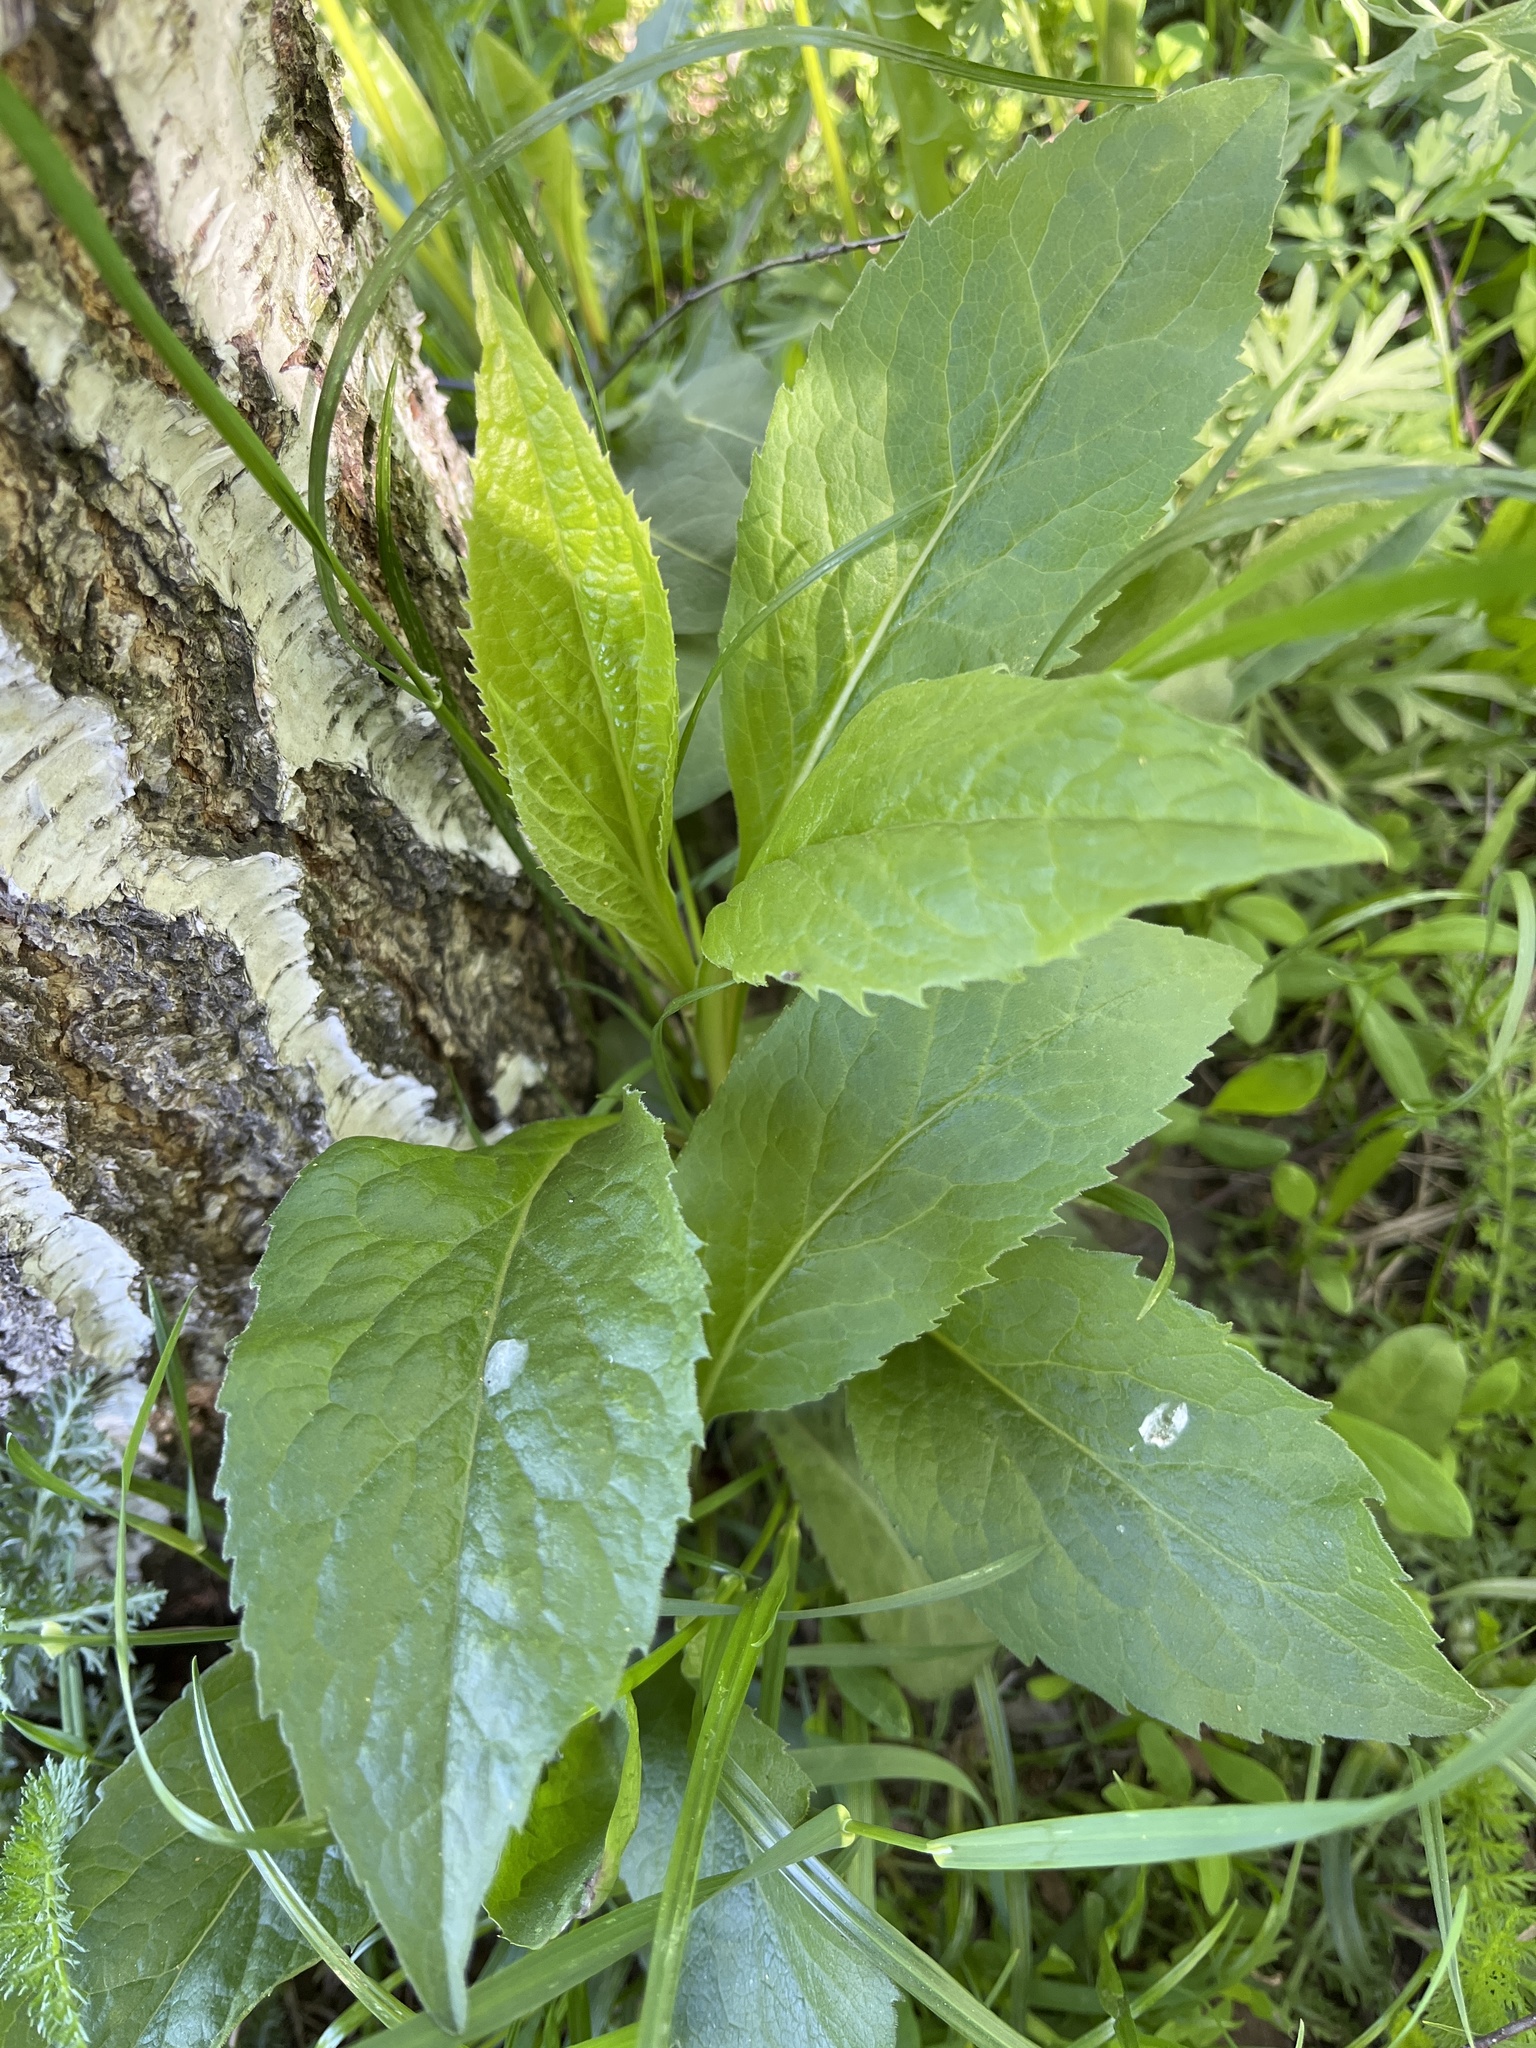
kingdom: Plantae
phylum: Tracheophyta
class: Magnoliopsida
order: Asterales
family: Asteraceae
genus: Solidago
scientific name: Solidago virgaurea
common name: Goldenrod
